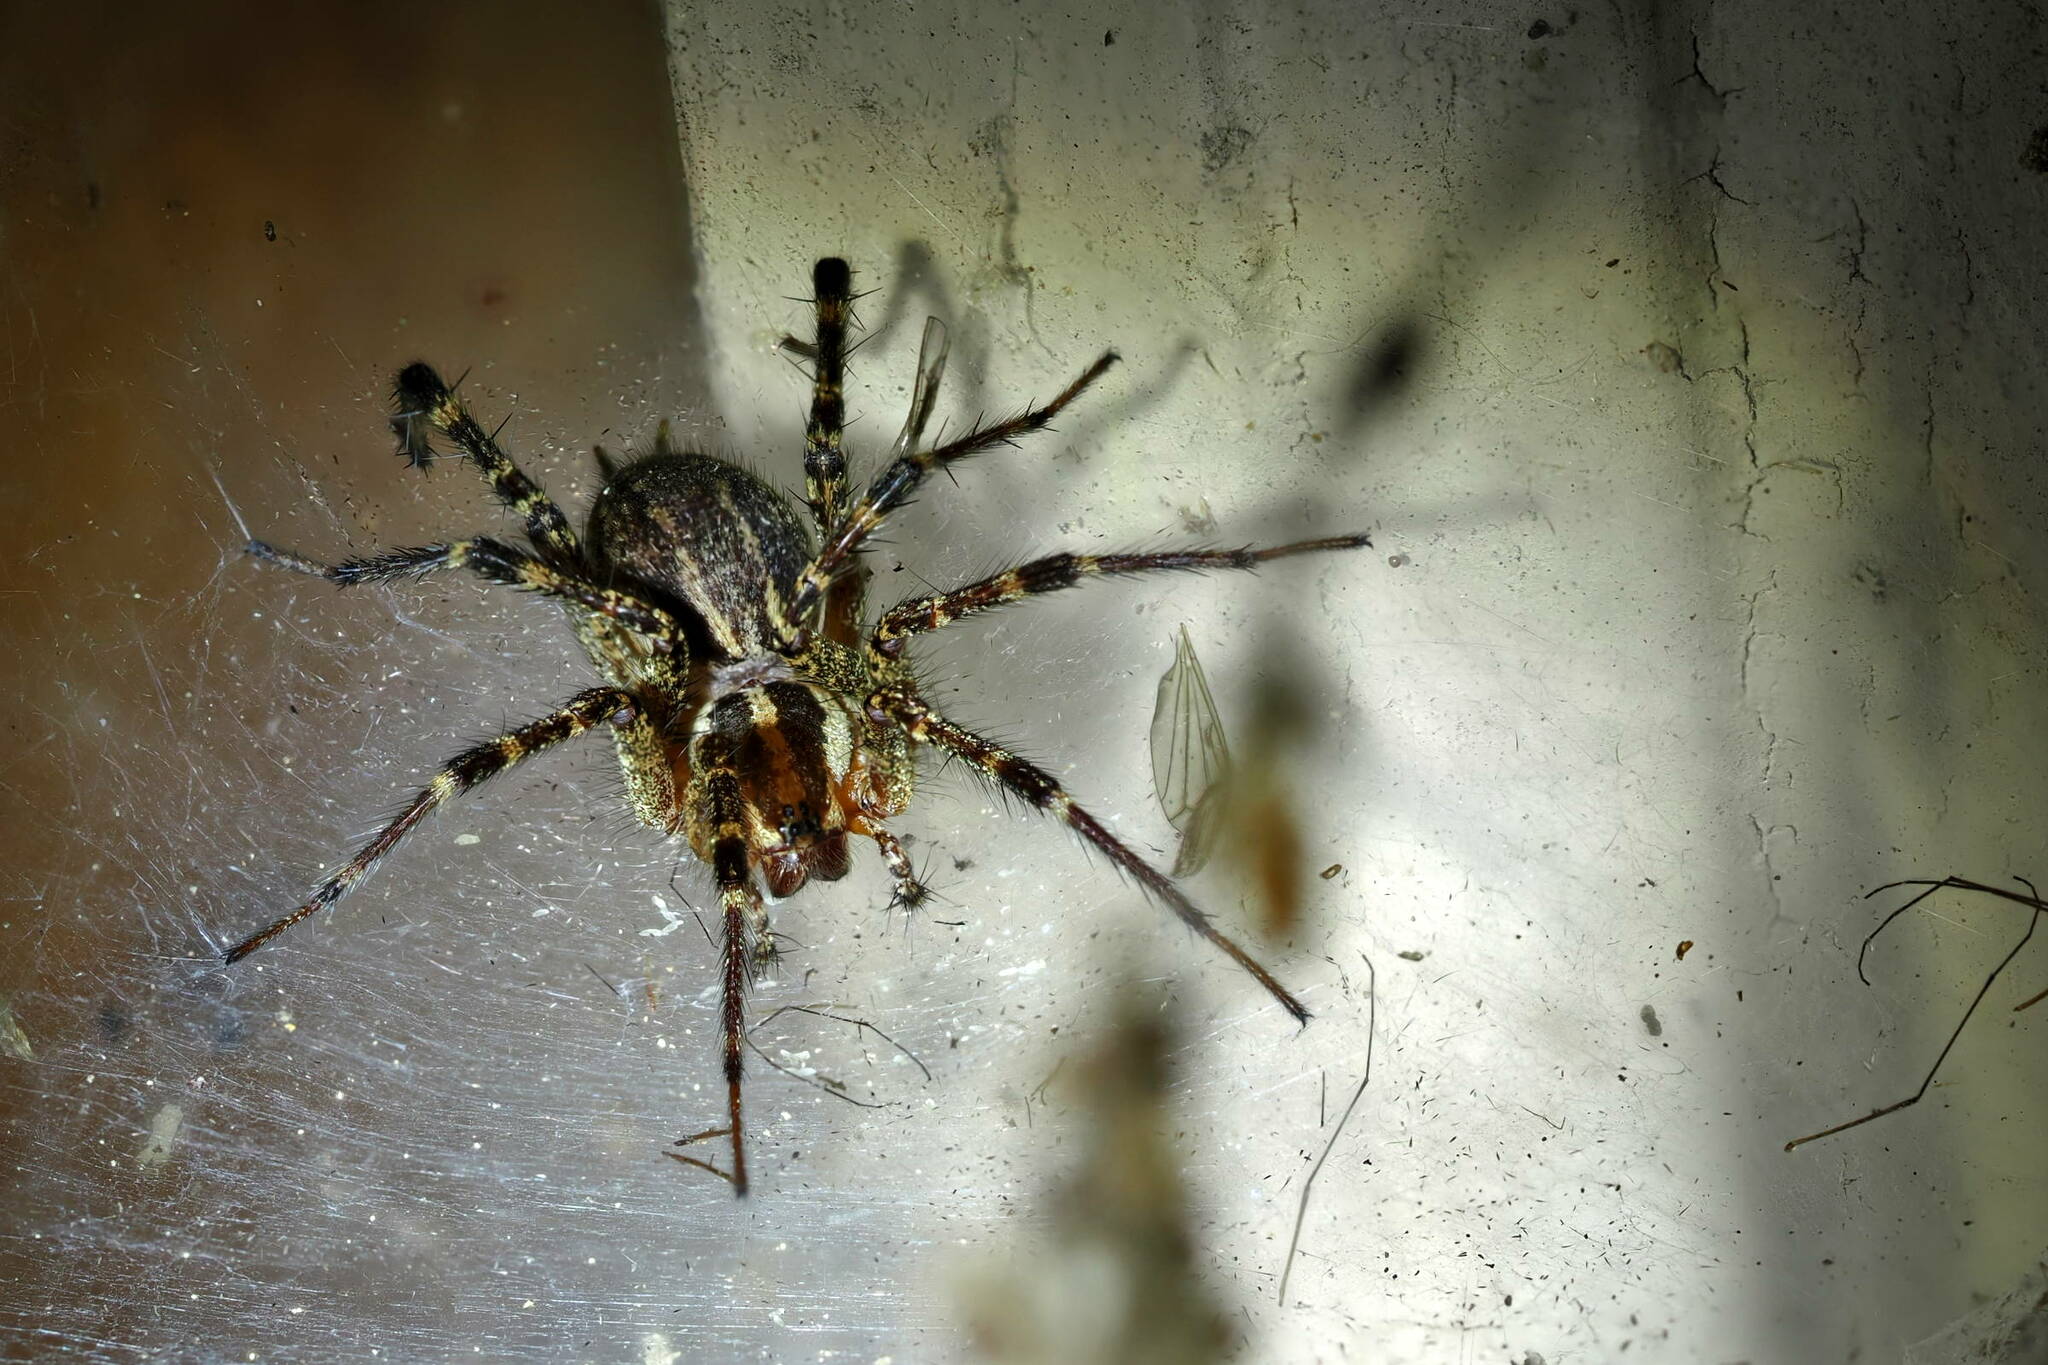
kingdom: Animalia
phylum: Arthropoda
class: Arachnida
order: Araneae
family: Agelenidae
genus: Agelenopsis
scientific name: Agelenopsis
